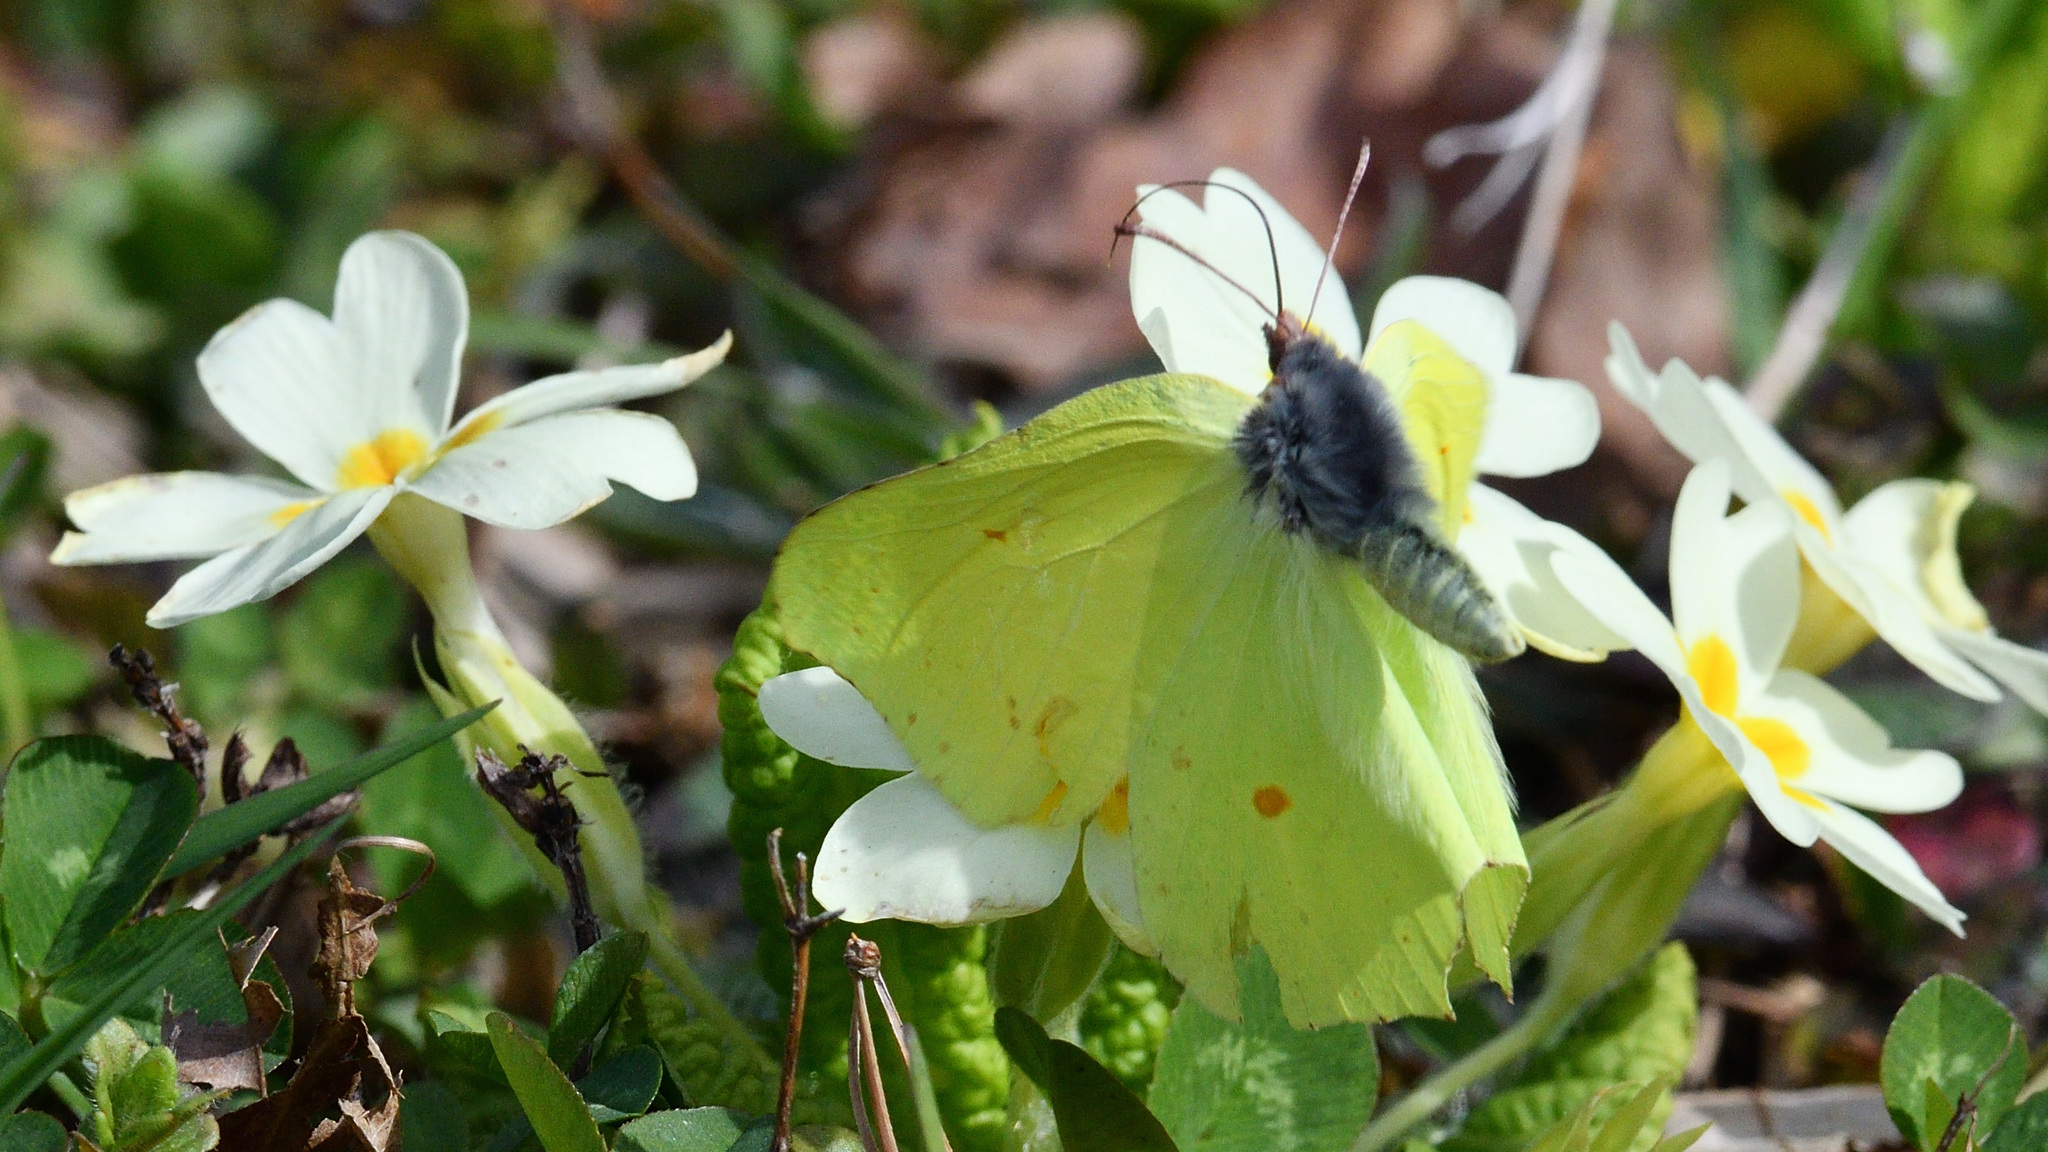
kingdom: Animalia
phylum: Arthropoda
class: Insecta
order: Lepidoptera
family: Pieridae
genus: Gonepteryx
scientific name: Gonepteryx rhamni
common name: Brimstone
